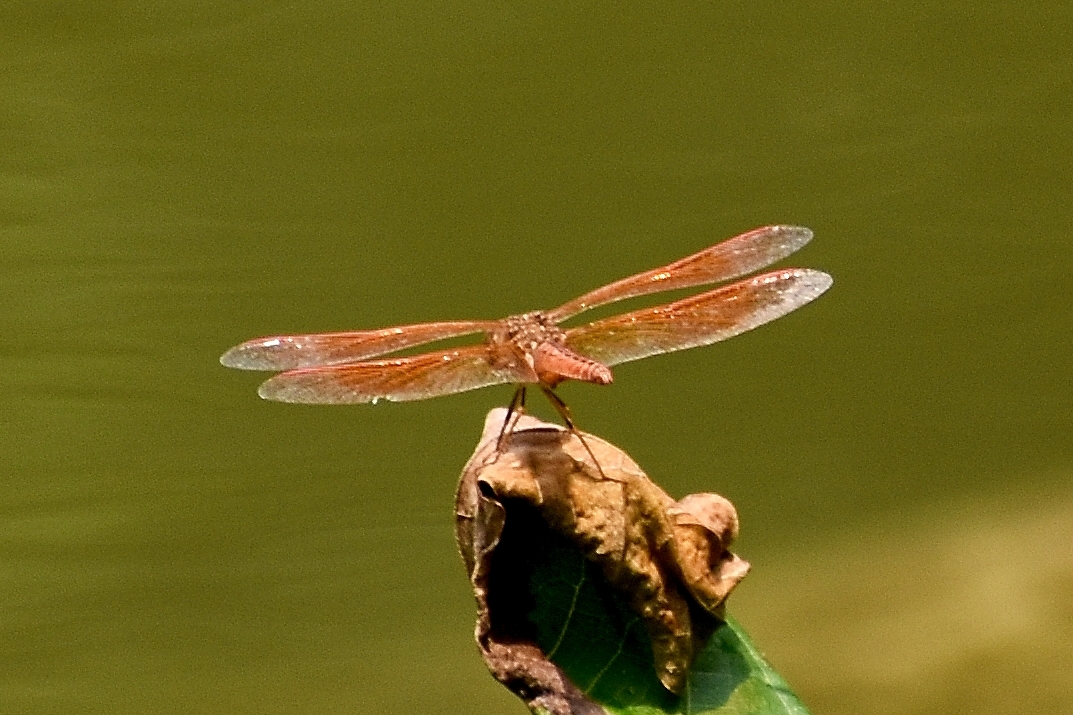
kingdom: Animalia
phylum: Arthropoda
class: Insecta
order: Odonata
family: Libellulidae
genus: Brachythemis
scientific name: Brachythemis contaminata
